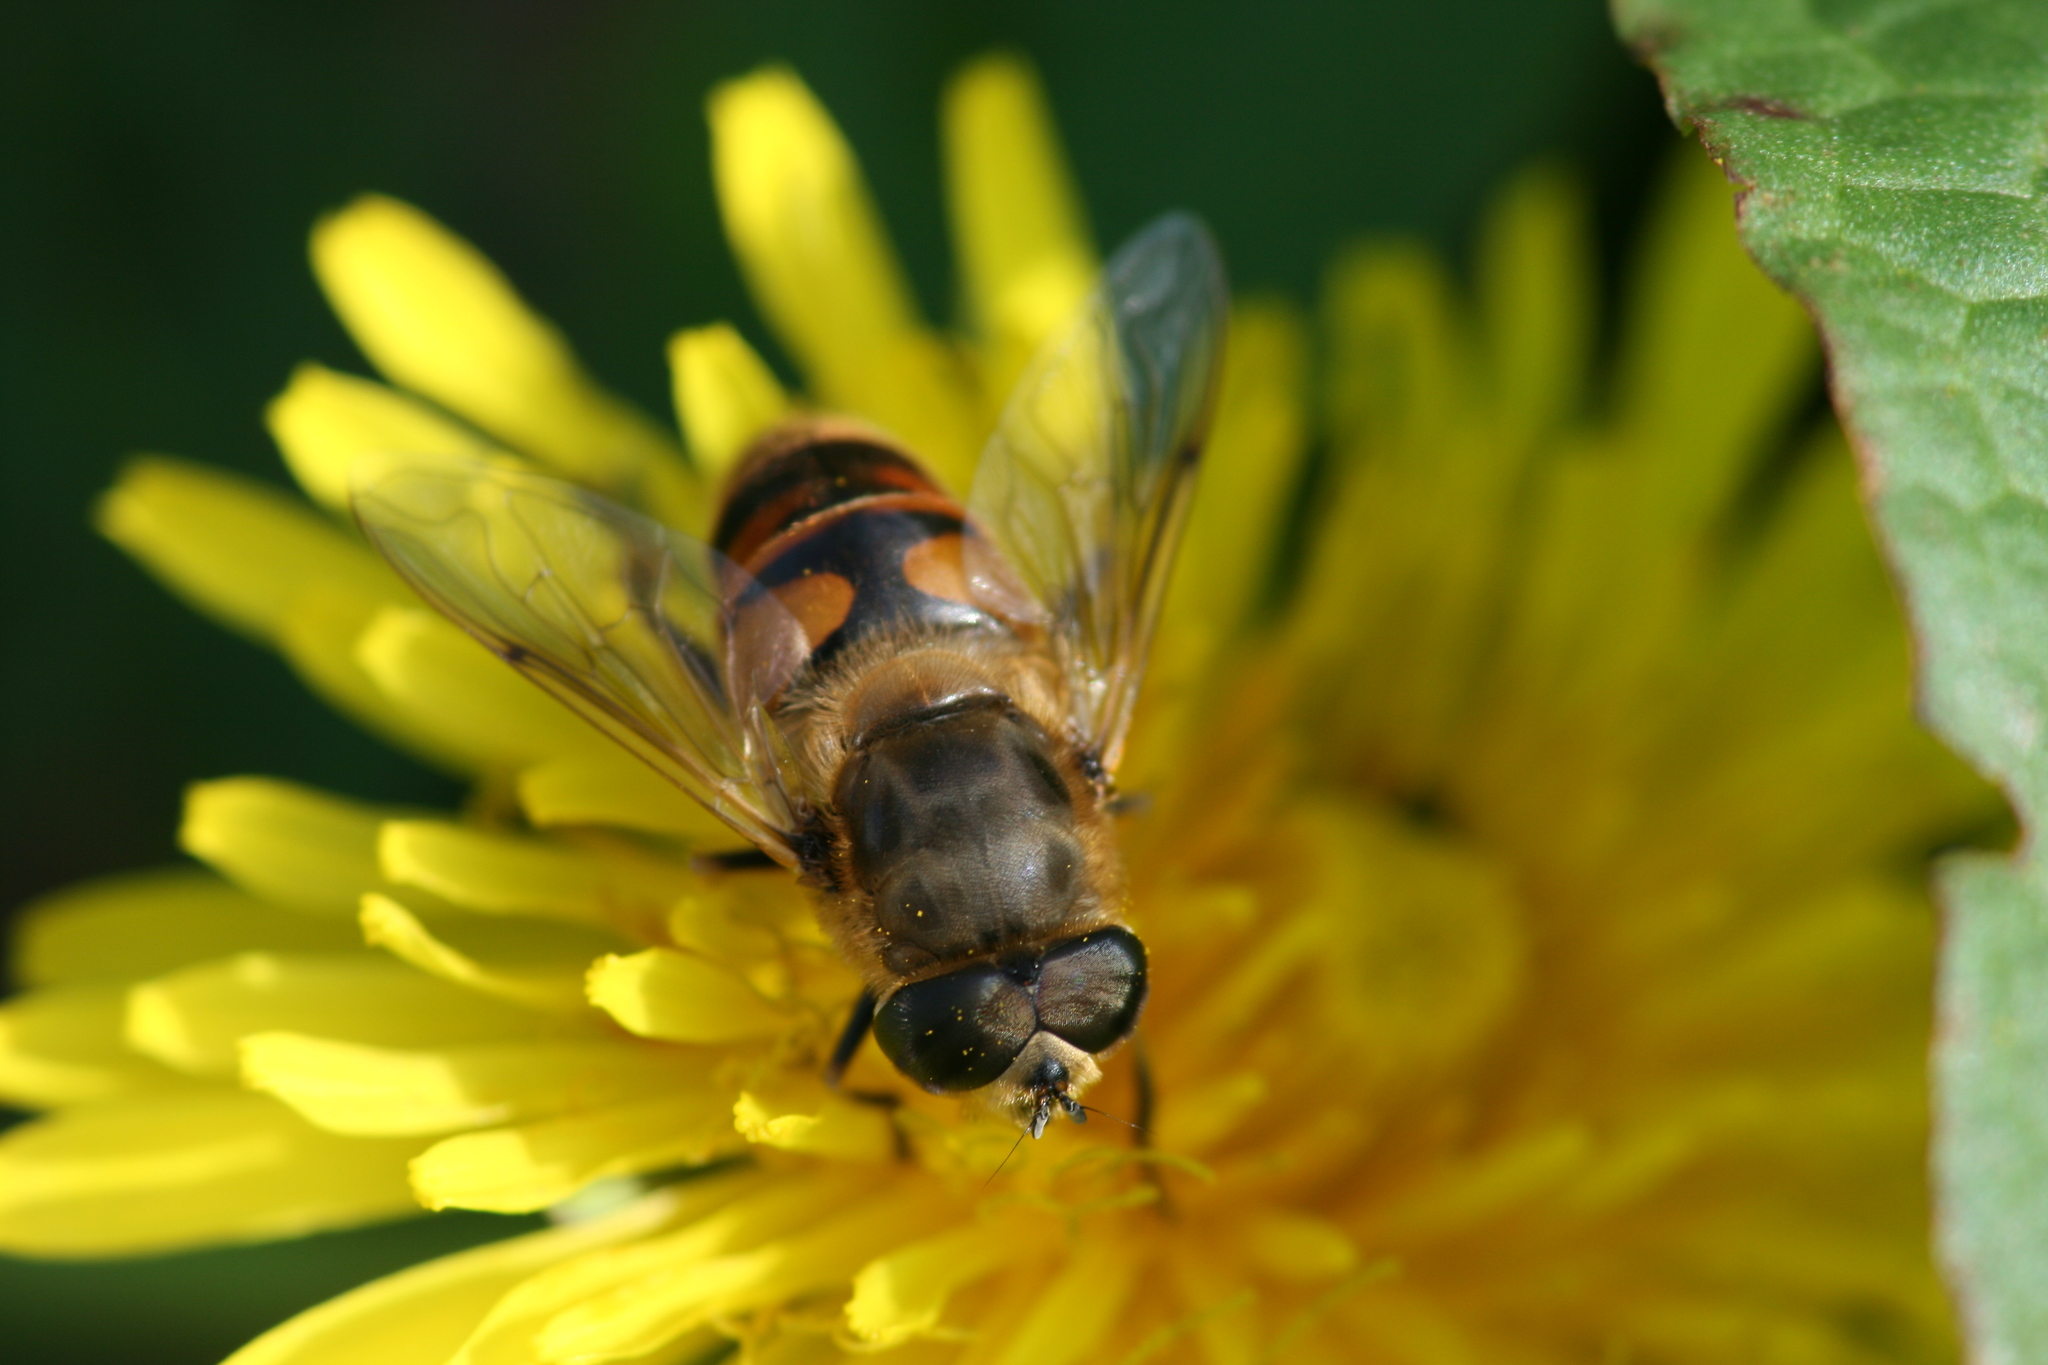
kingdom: Animalia
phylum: Arthropoda
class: Insecta
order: Diptera
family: Syrphidae
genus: Eristalis
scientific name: Eristalis tenax
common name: Drone fly
